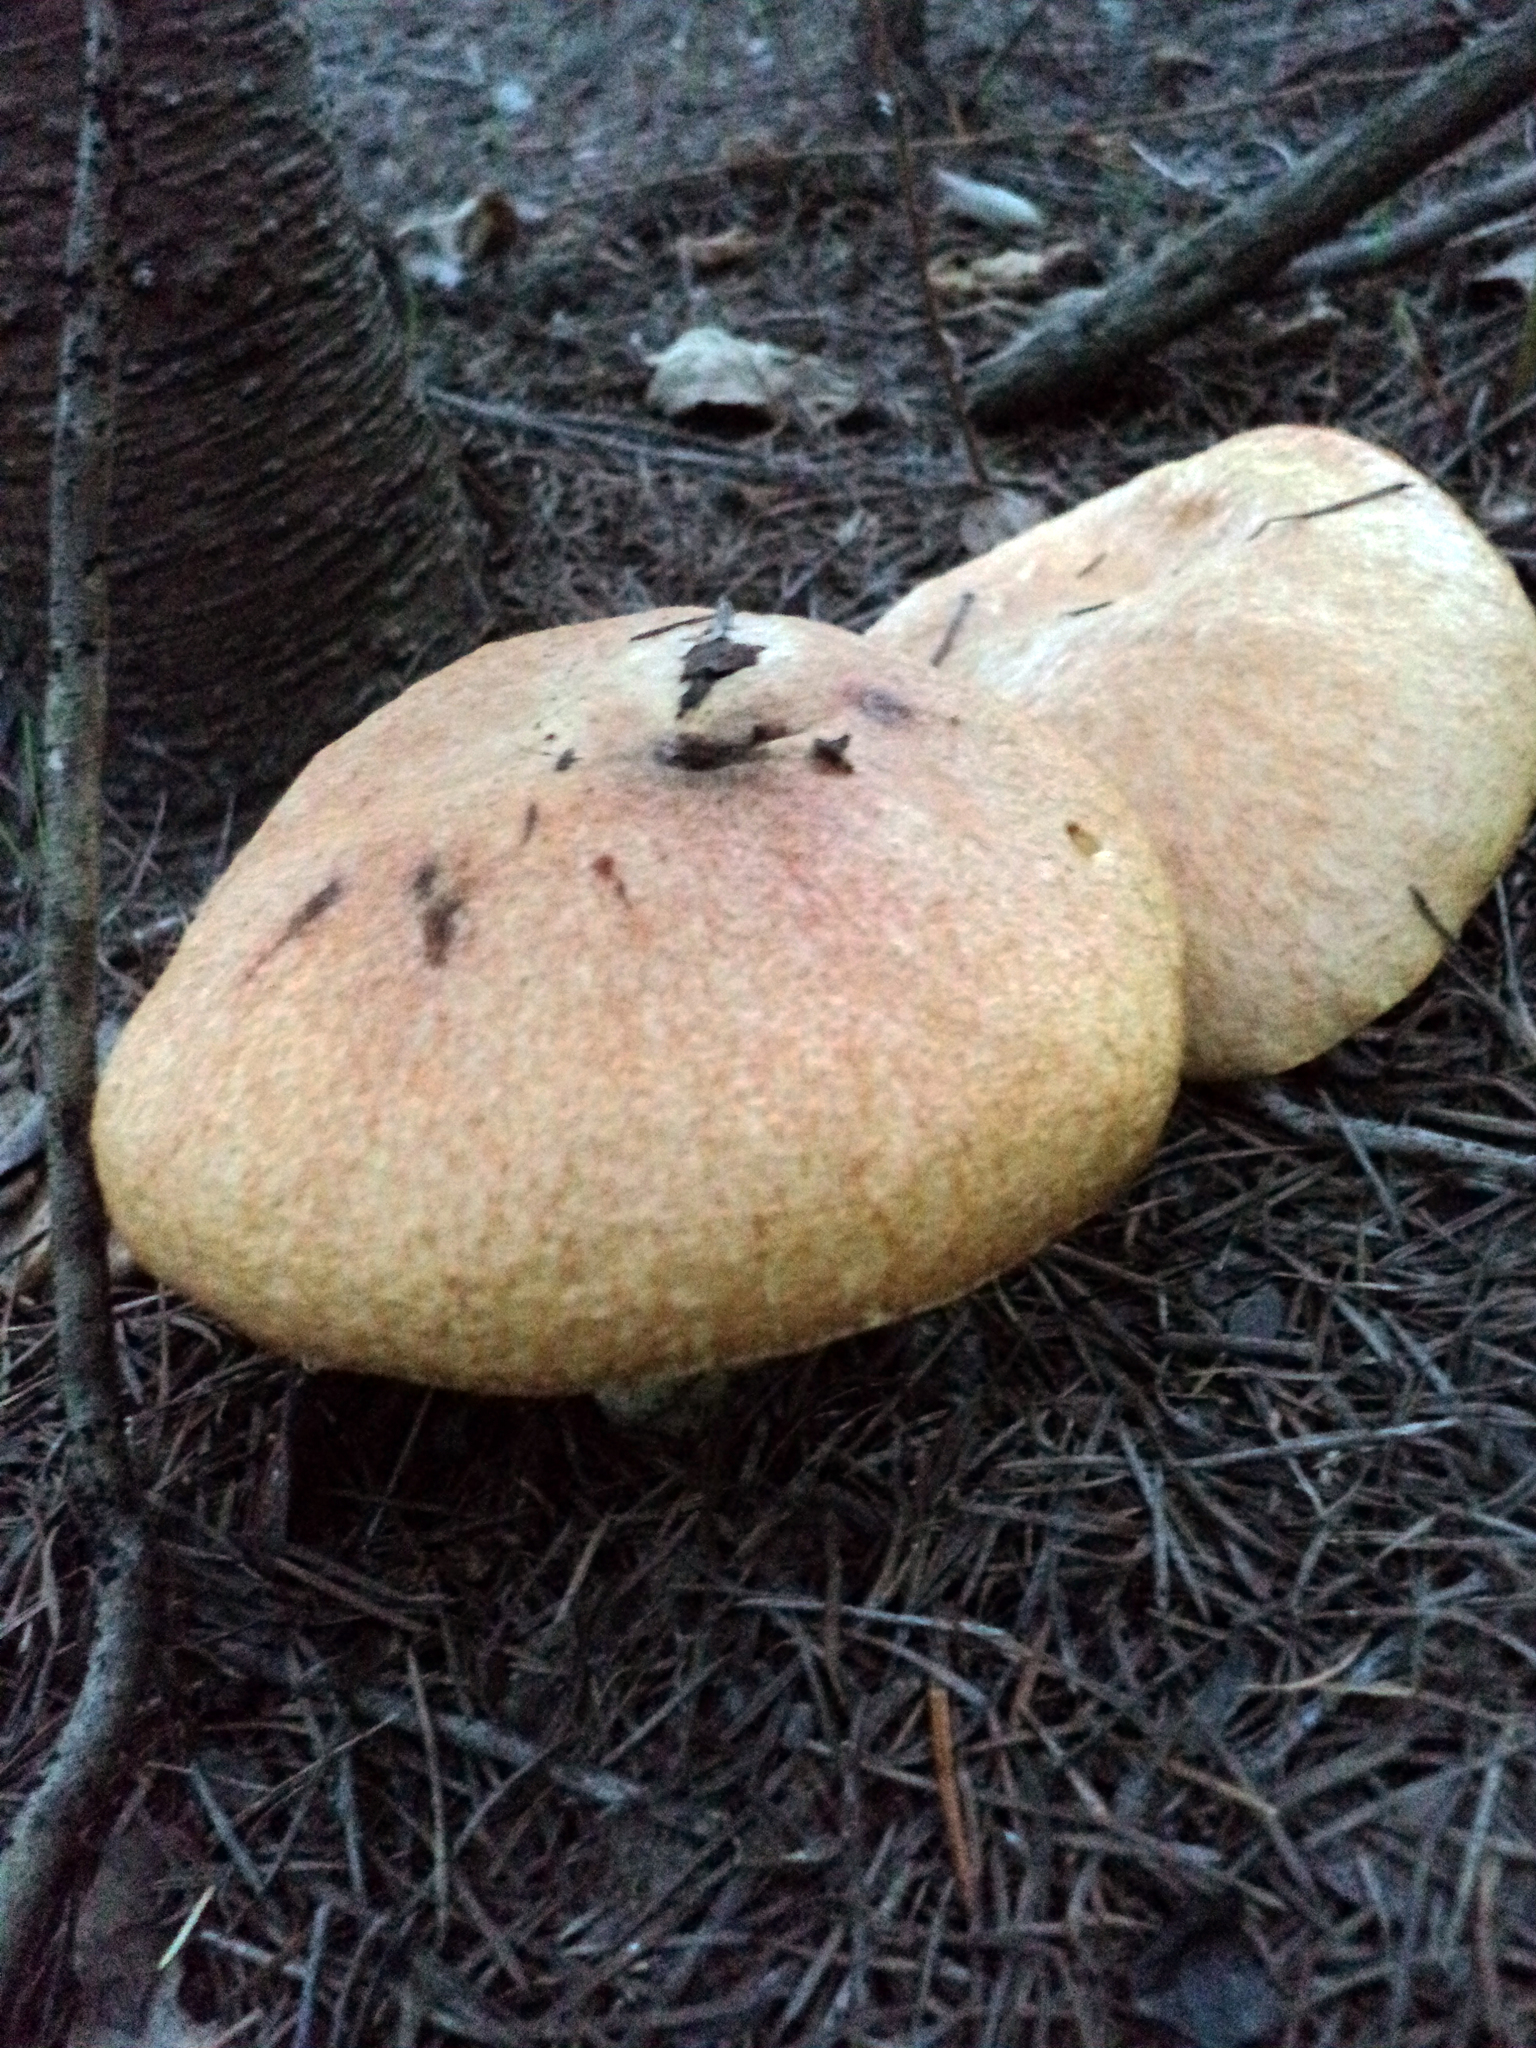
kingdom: Fungi
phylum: Basidiomycota
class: Agaricomycetes
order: Boletales
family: Suillaceae
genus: Suillus
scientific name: Suillus caerulescens
